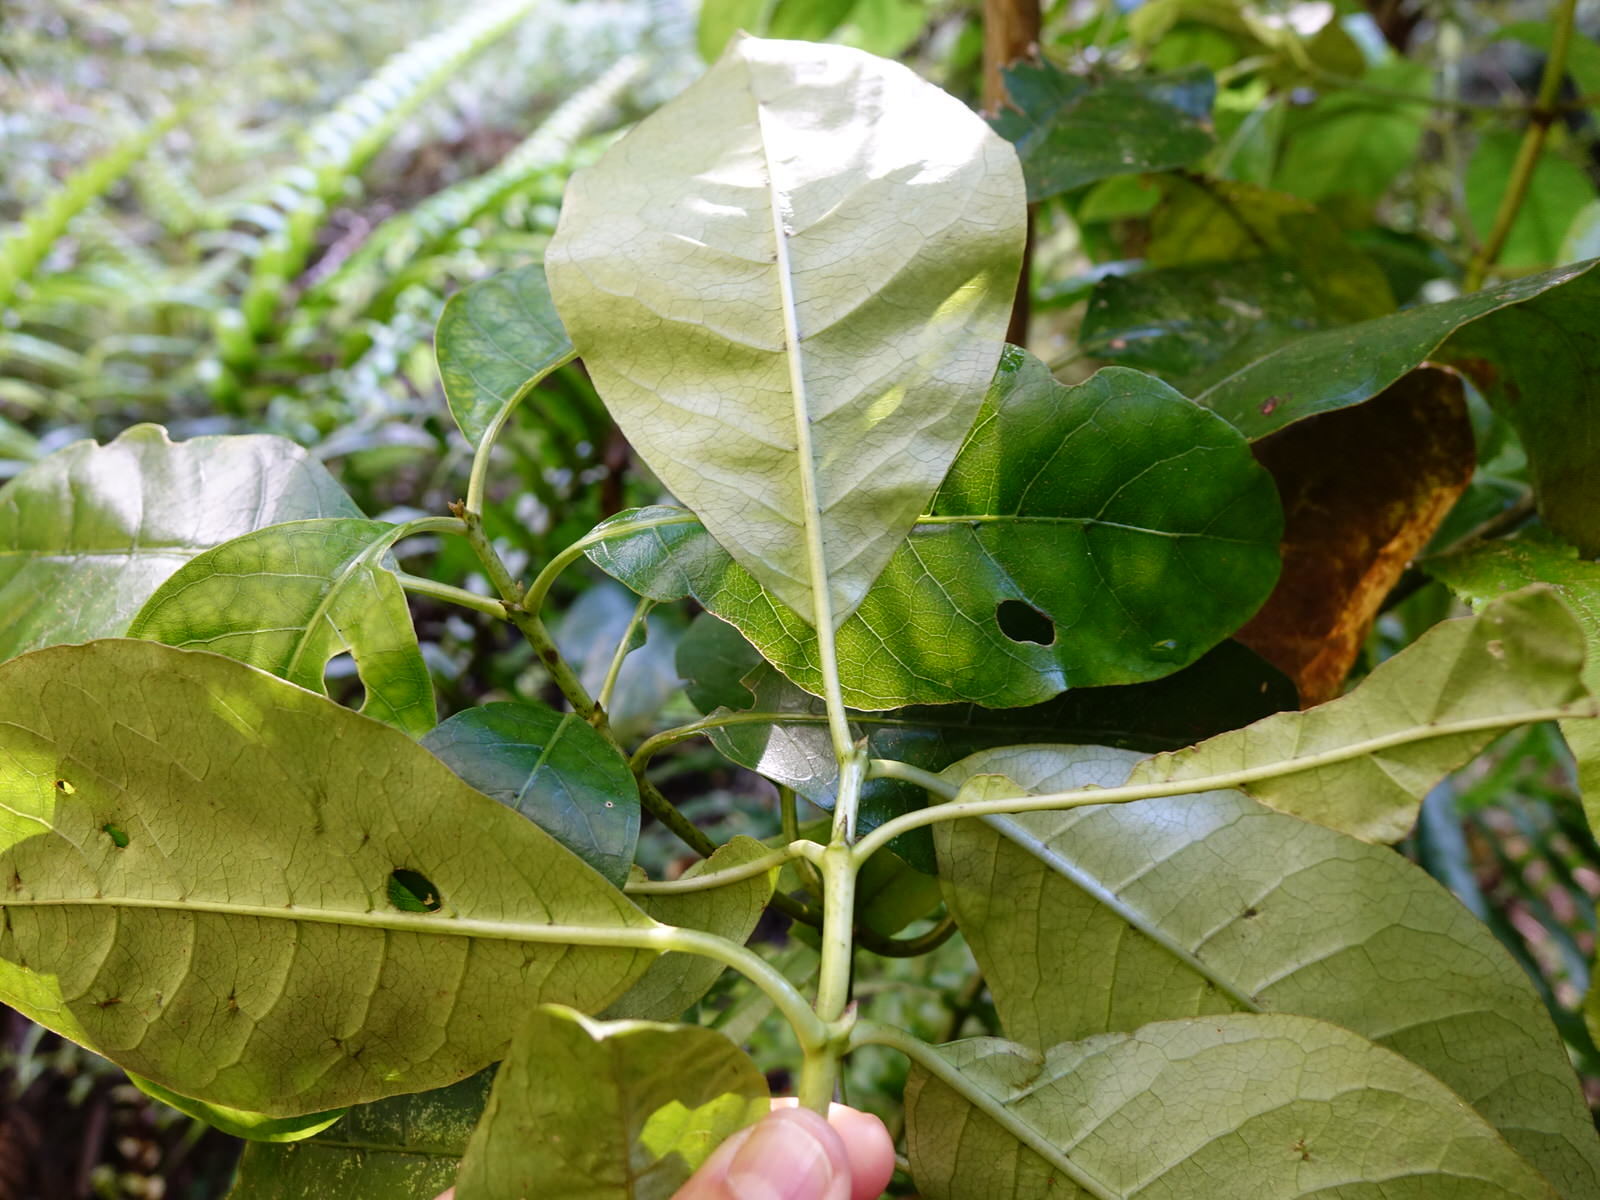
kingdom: Plantae
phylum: Tracheophyta
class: Magnoliopsida
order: Gentianales
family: Rubiaceae
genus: Coprosma
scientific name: Coprosma autumnalis
